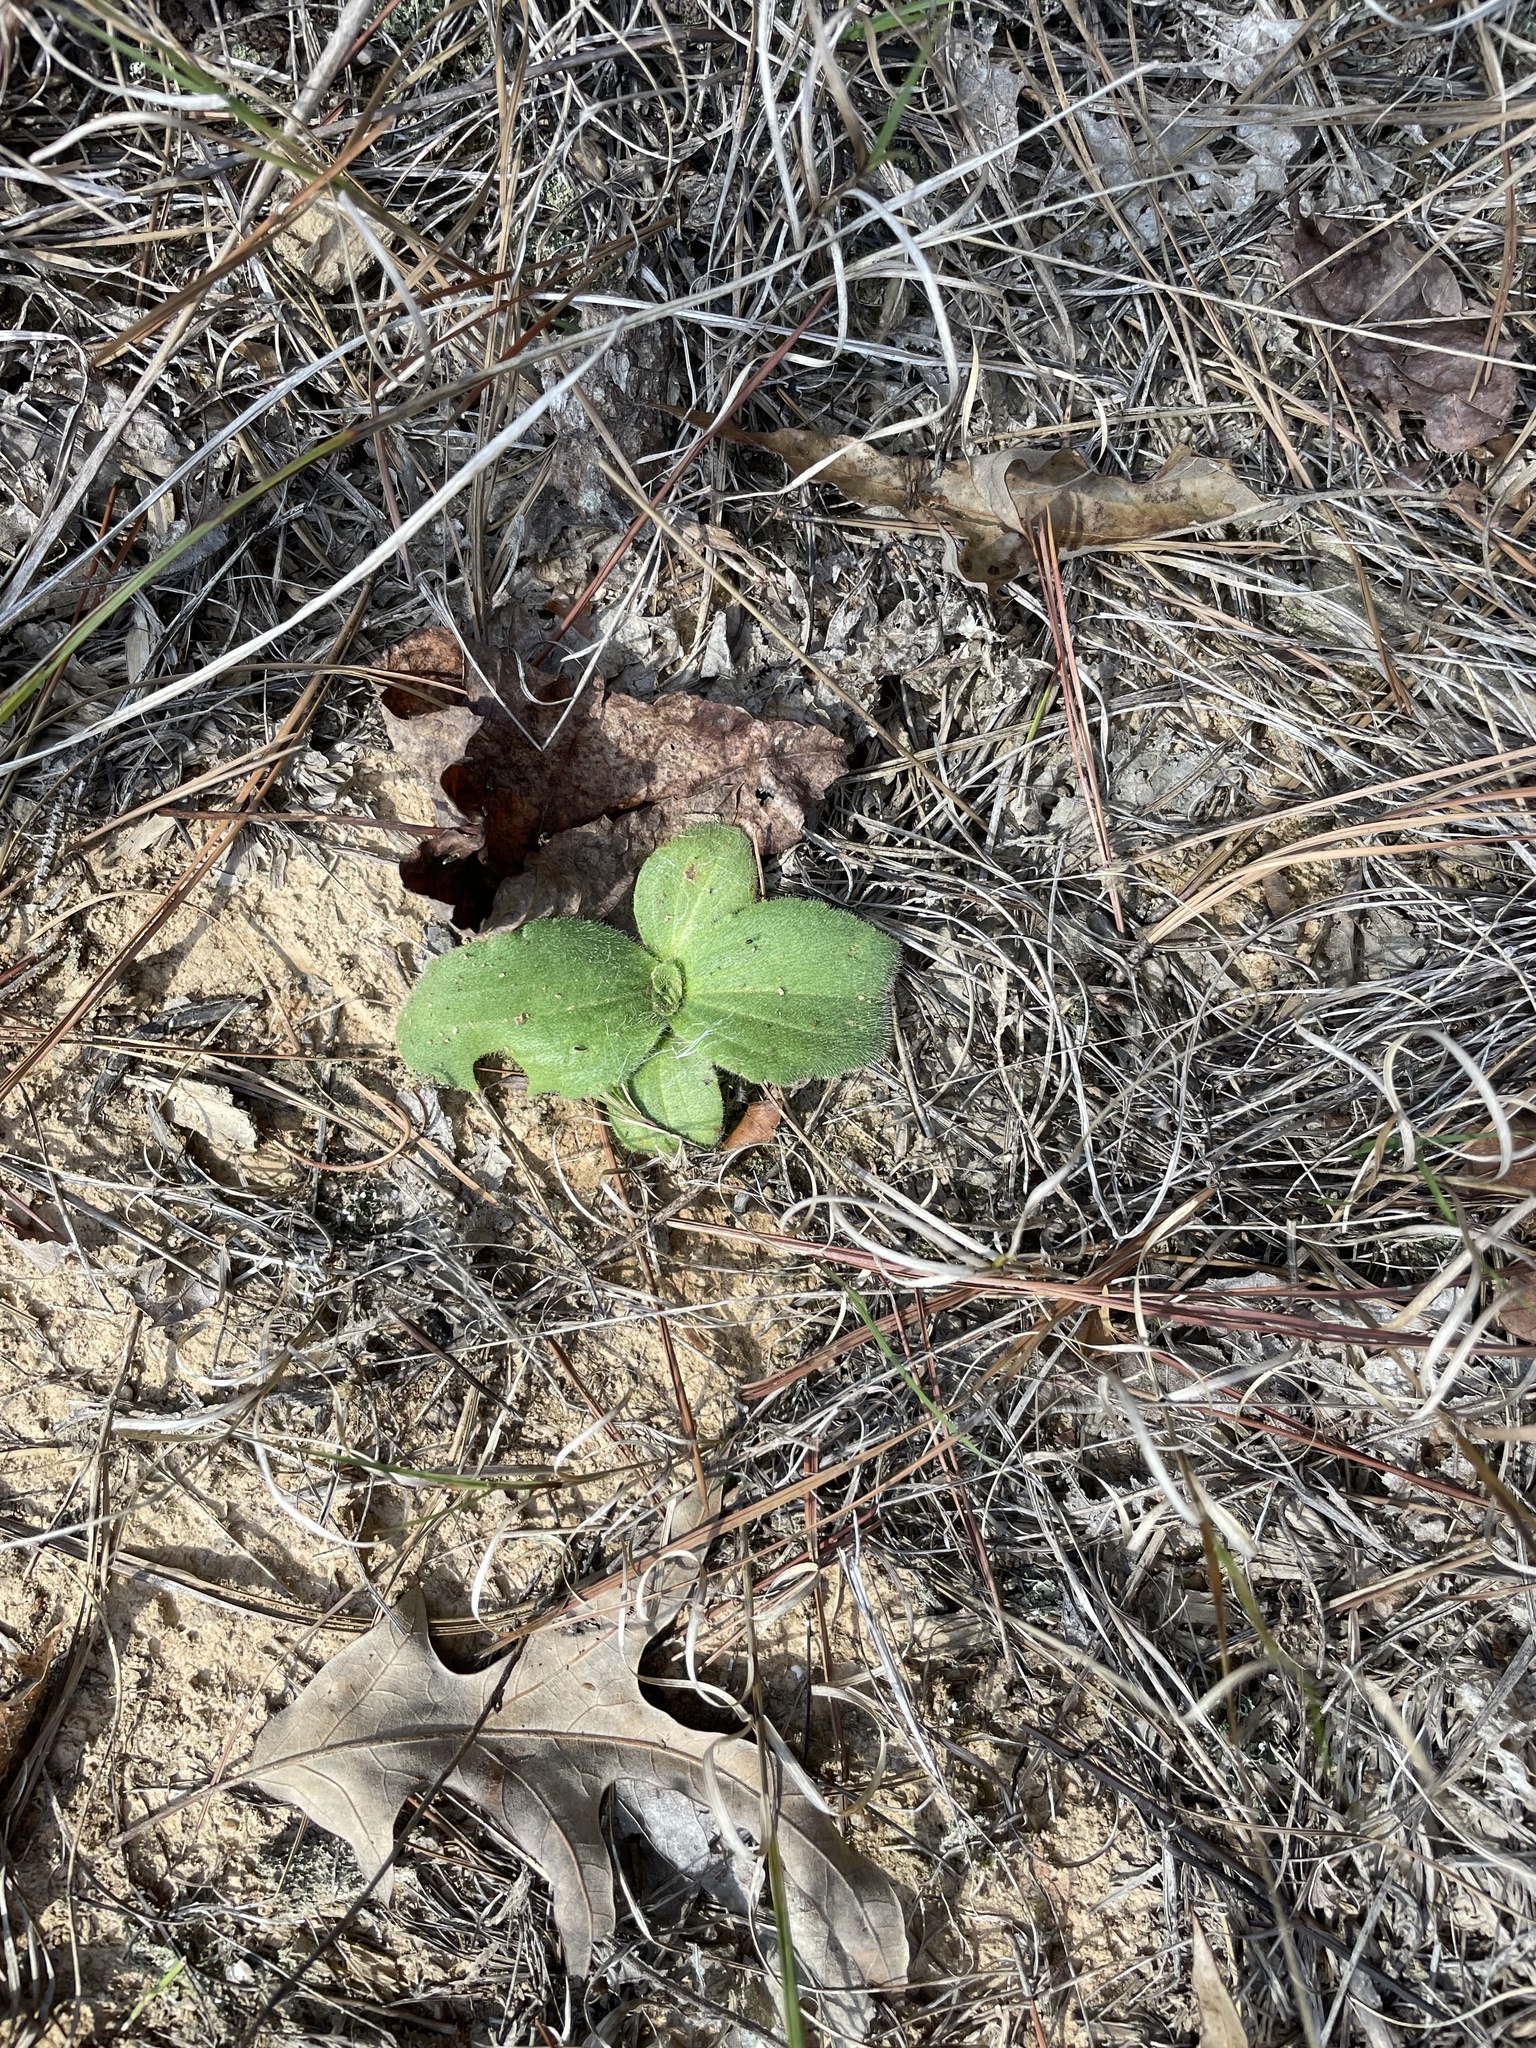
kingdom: Plantae
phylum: Tracheophyta
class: Magnoliopsida
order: Asterales
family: Asteraceae
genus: Arnica
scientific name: Arnica acaulis
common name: Common leopardbane
